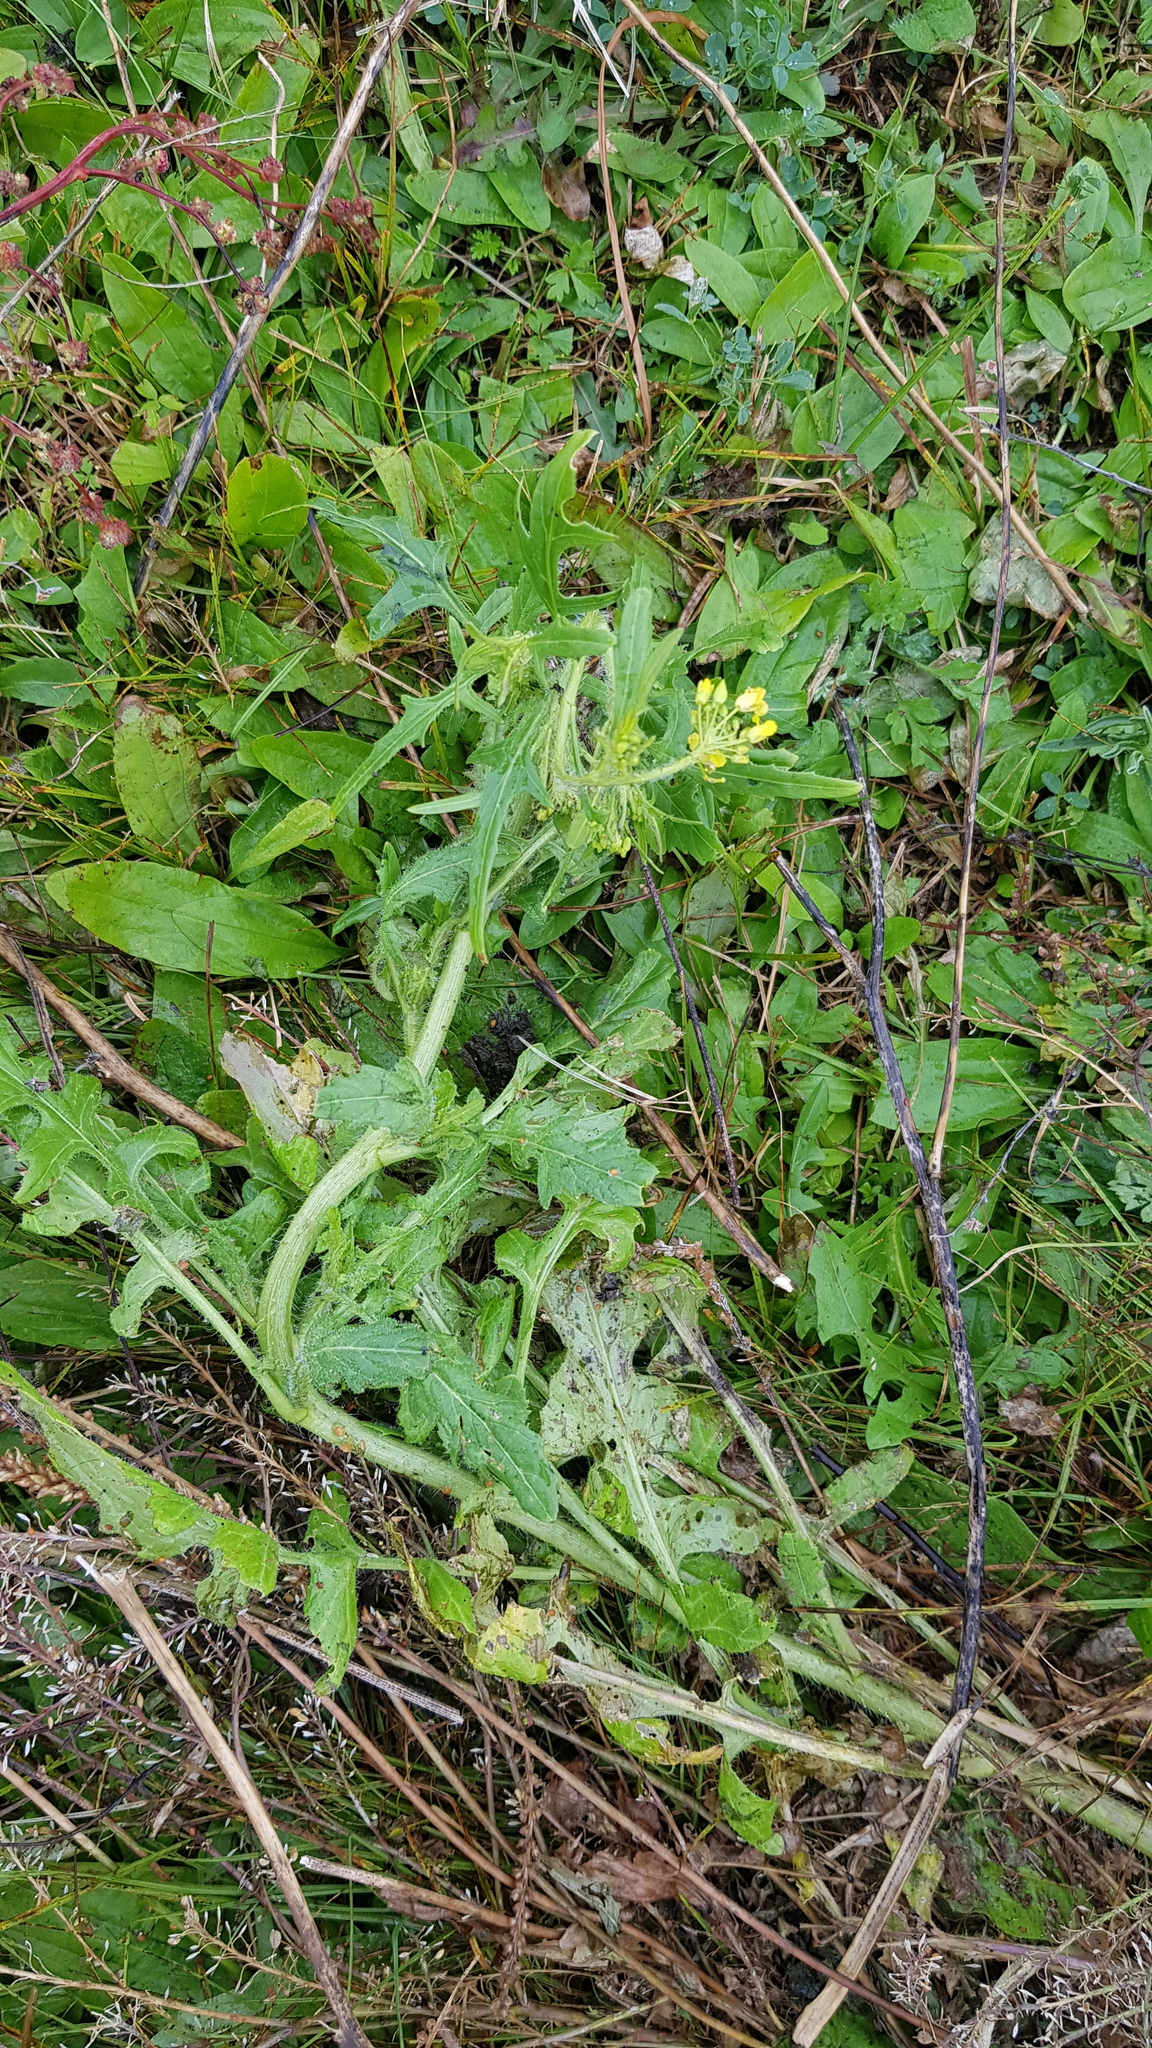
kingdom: Plantae
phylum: Tracheophyta
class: Magnoliopsida
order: Brassicales
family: Brassicaceae
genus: Sisymbrium
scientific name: Sisymbrium loeselii
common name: False london-rocket
